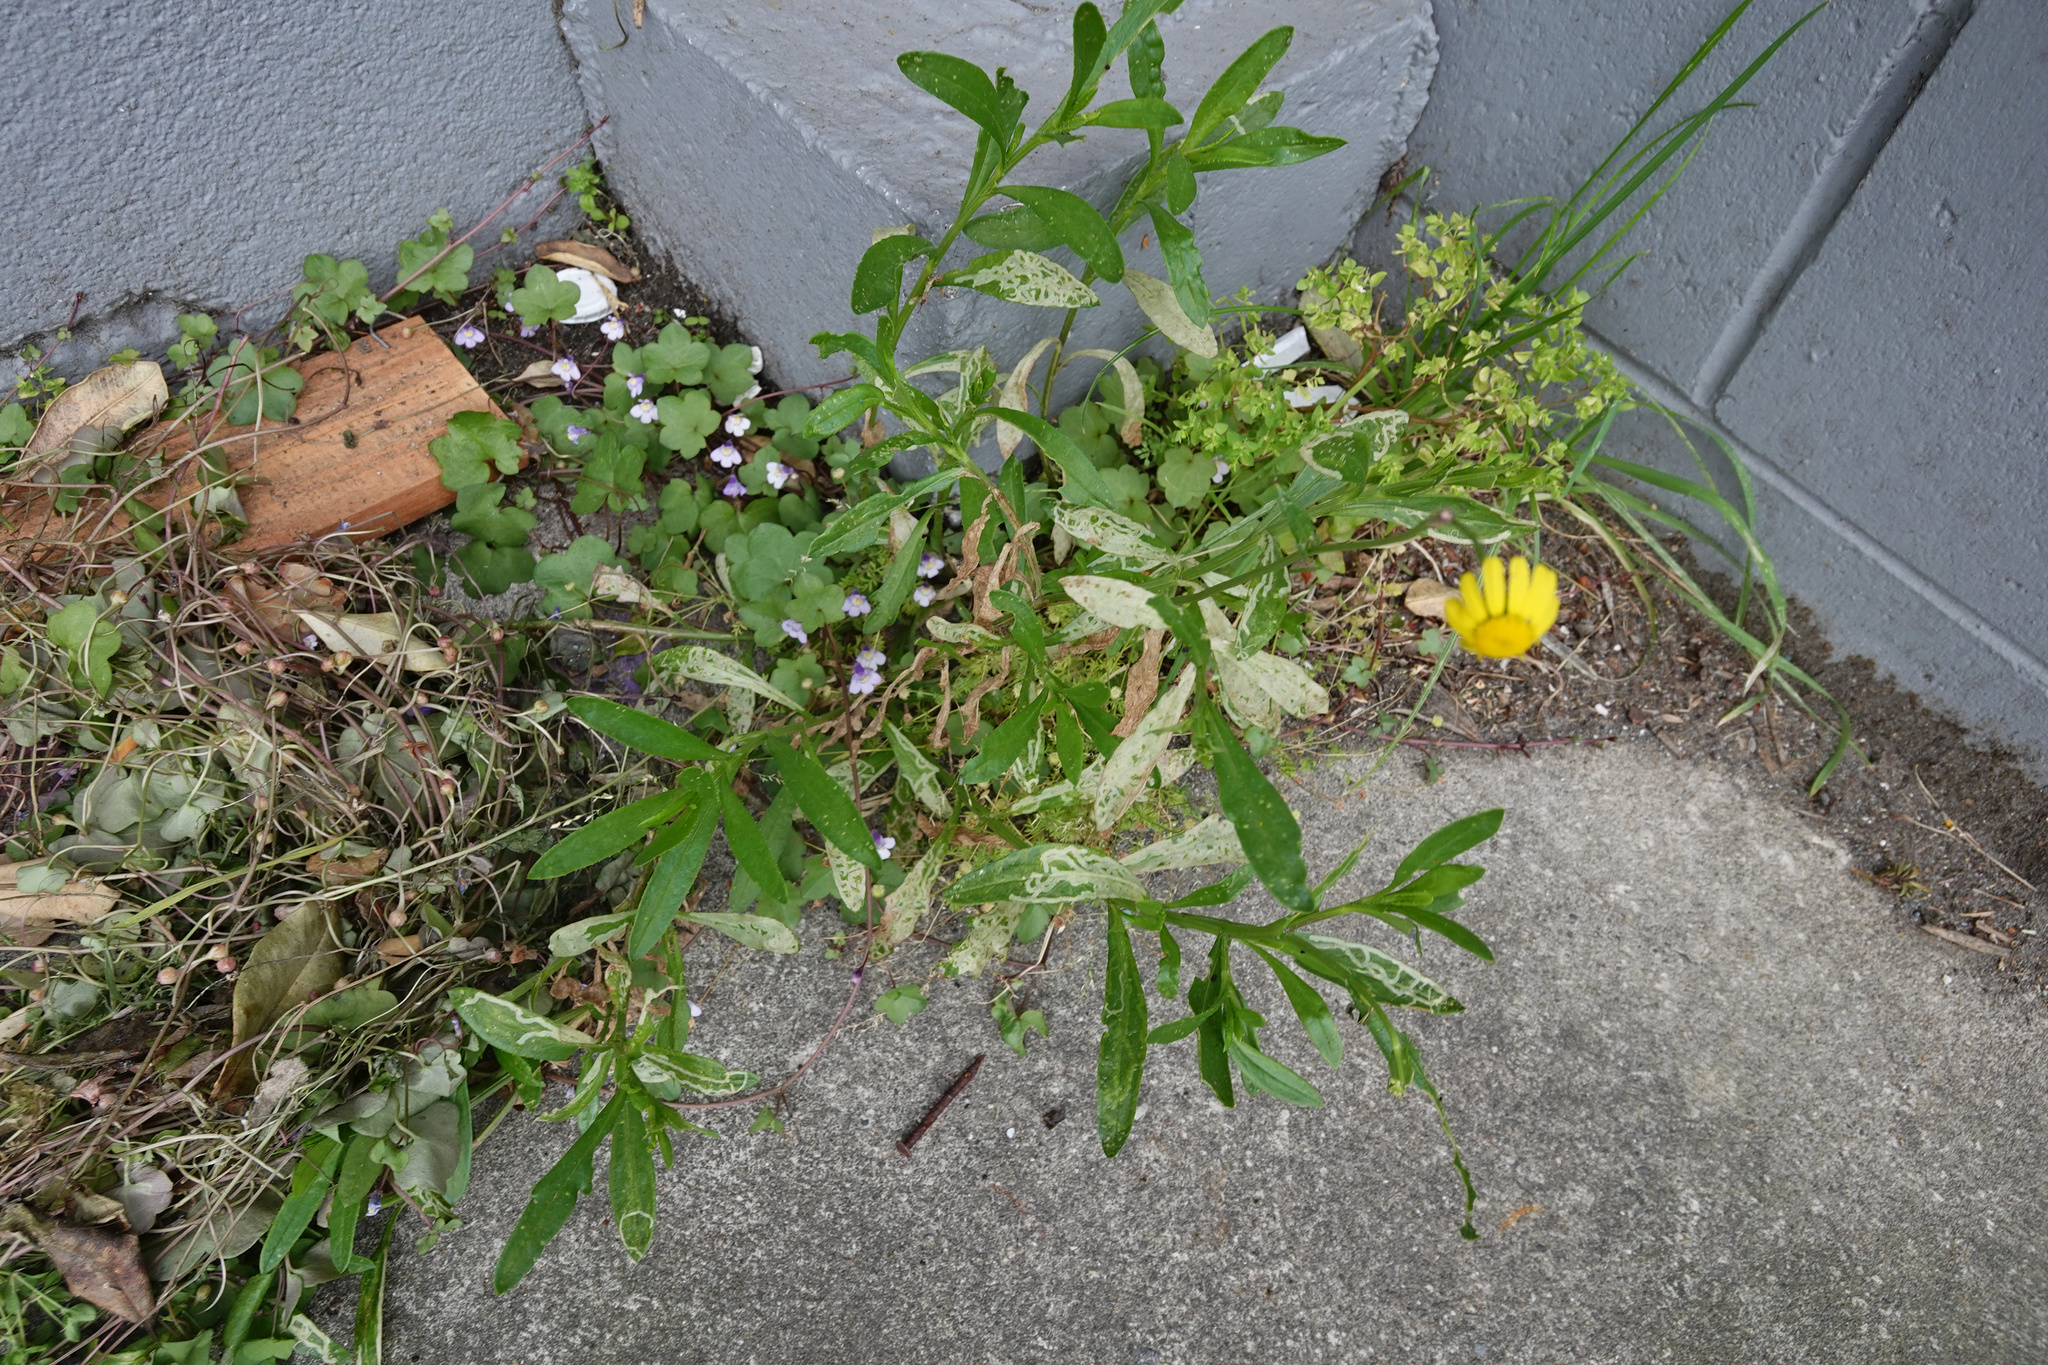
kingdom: Plantae
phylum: Tracheophyta
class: Magnoliopsida
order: Asterales
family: Asteraceae
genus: Senecio
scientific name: Senecio skirrhodon
